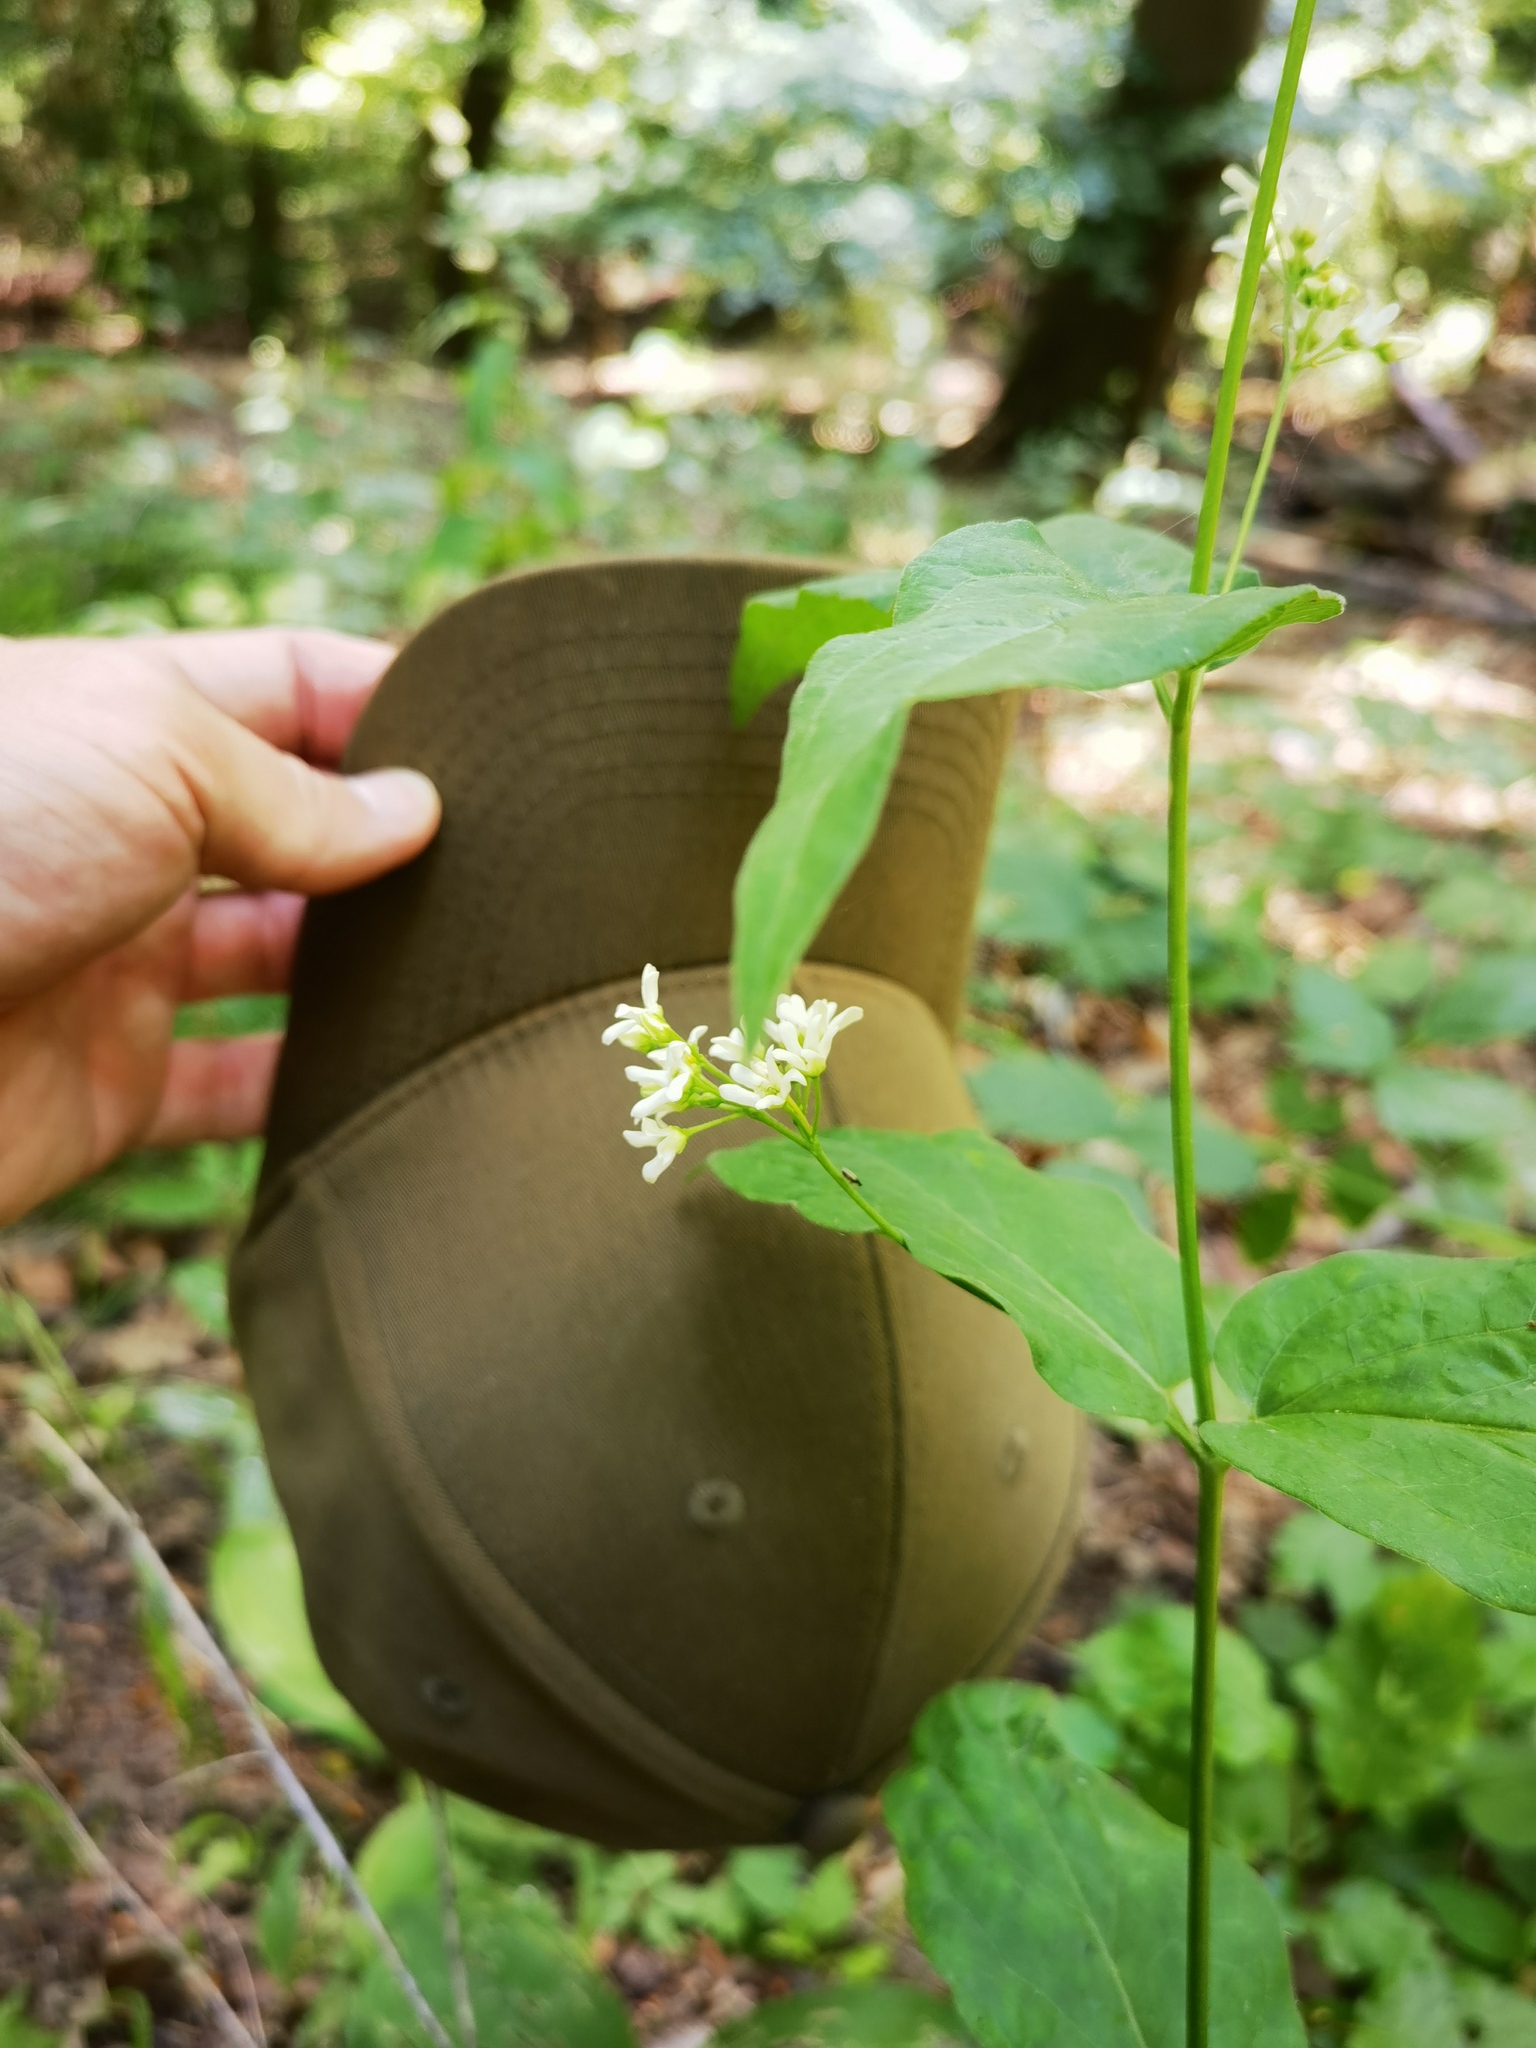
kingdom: Plantae
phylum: Tracheophyta
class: Magnoliopsida
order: Gentianales
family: Apocynaceae
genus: Vincetoxicum
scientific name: Vincetoxicum hirundinaria
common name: White swallowwort
